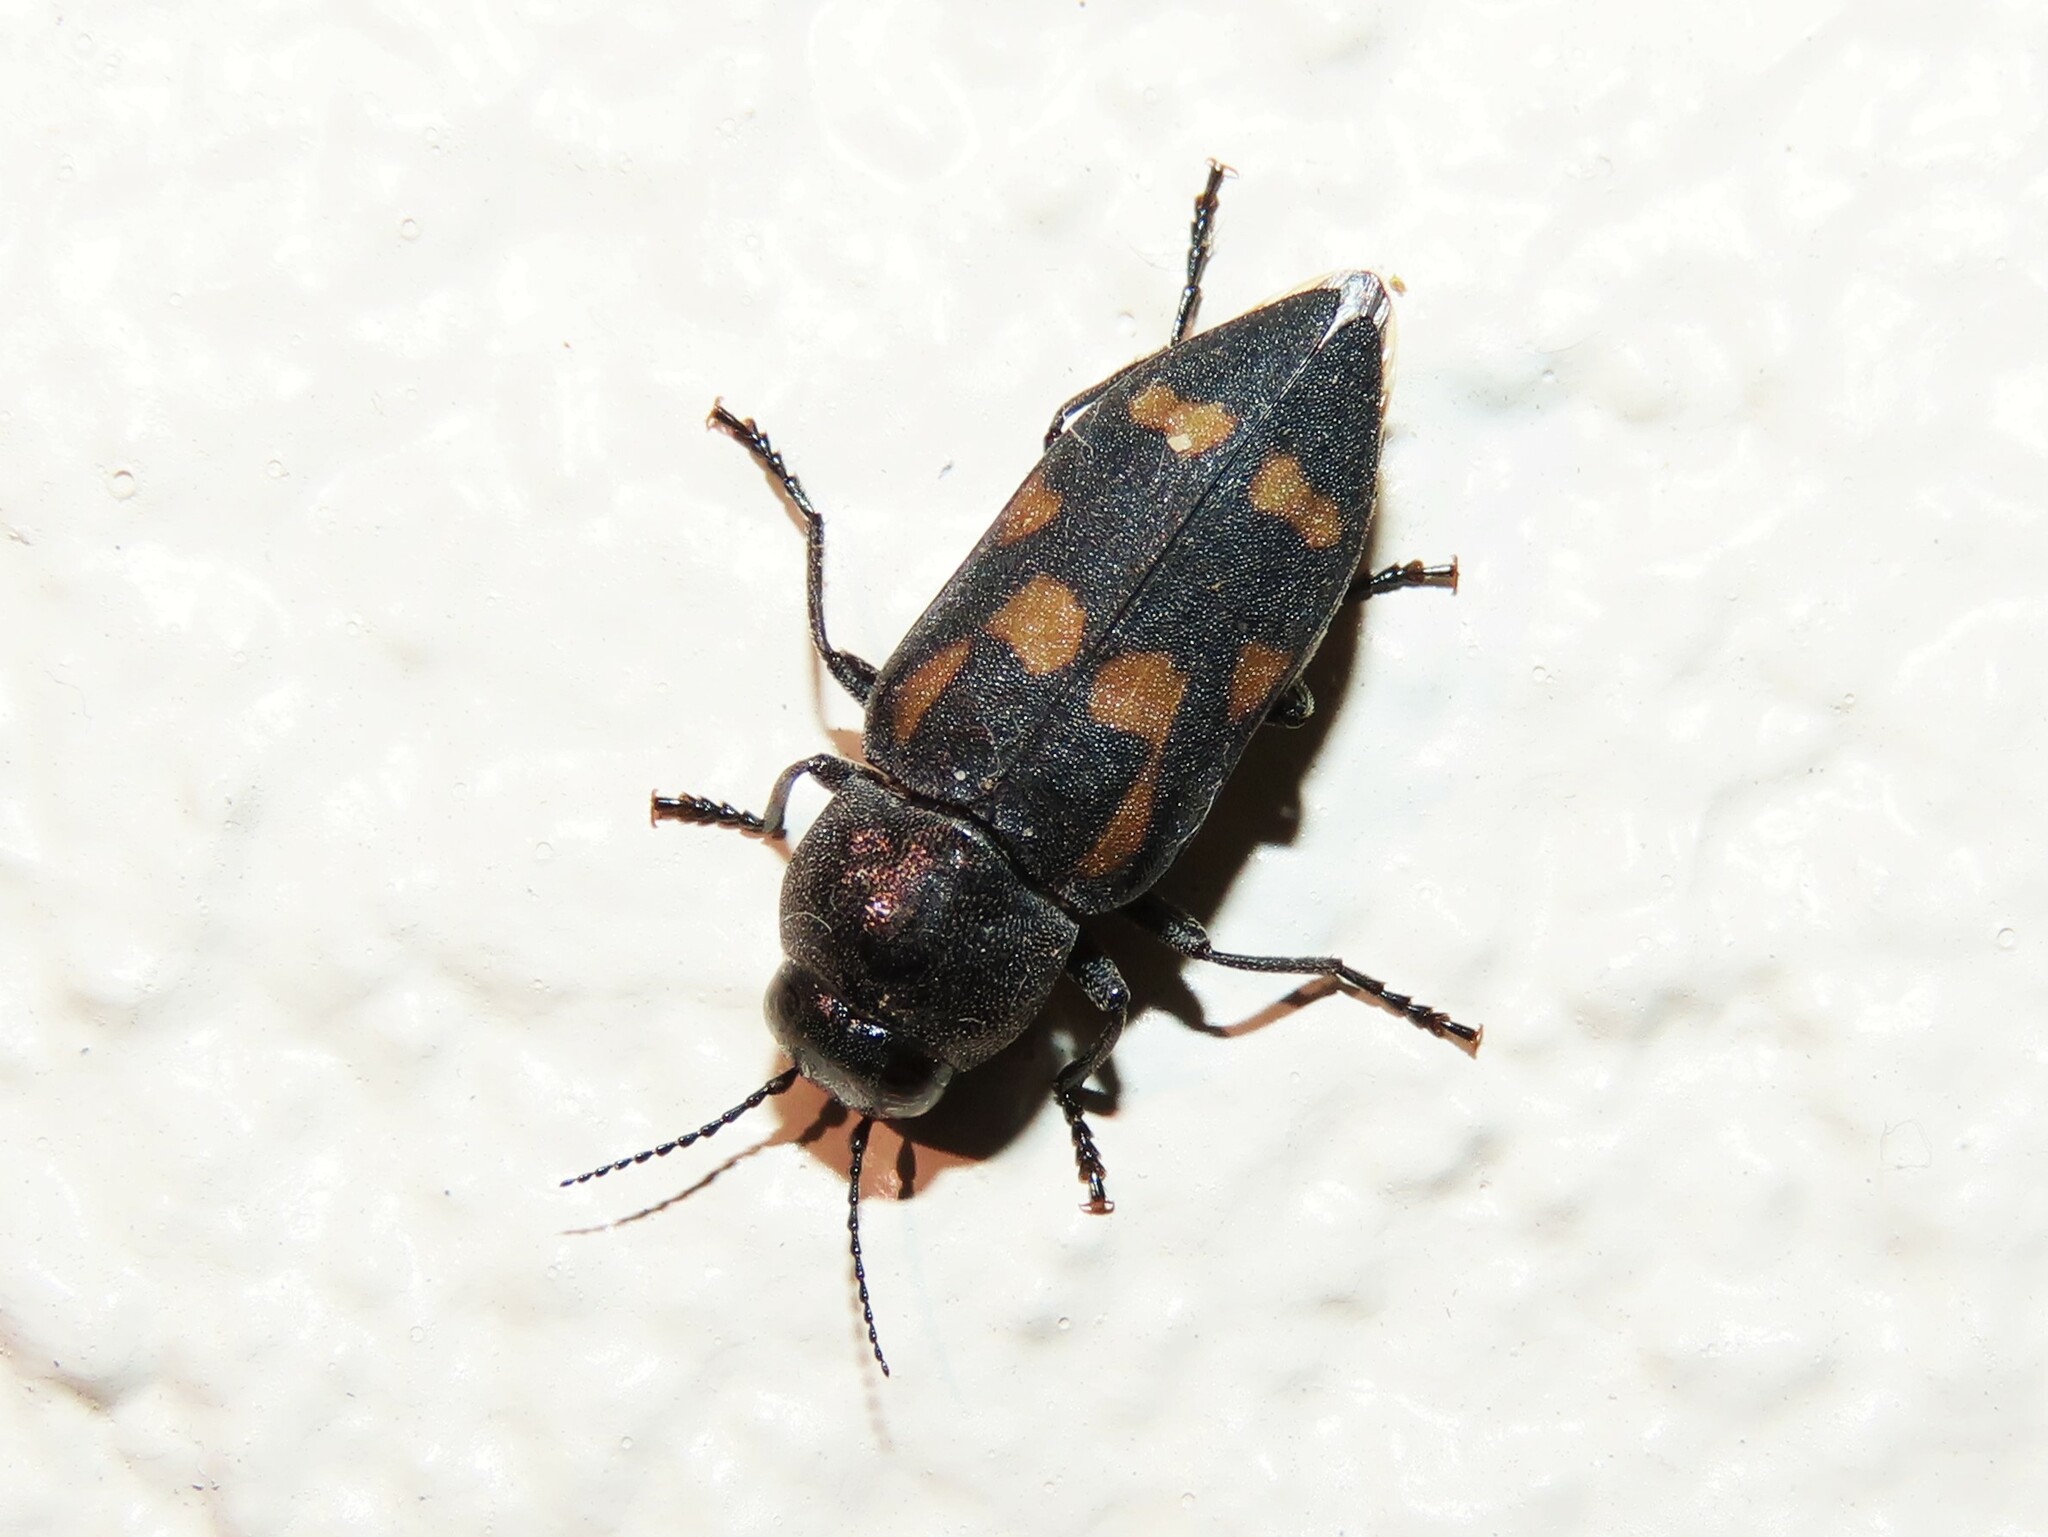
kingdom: Animalia
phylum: Arthropoda
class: Insecta
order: Coleoptera
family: Buprestidae
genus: Melanophila
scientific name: Melanophila notata
